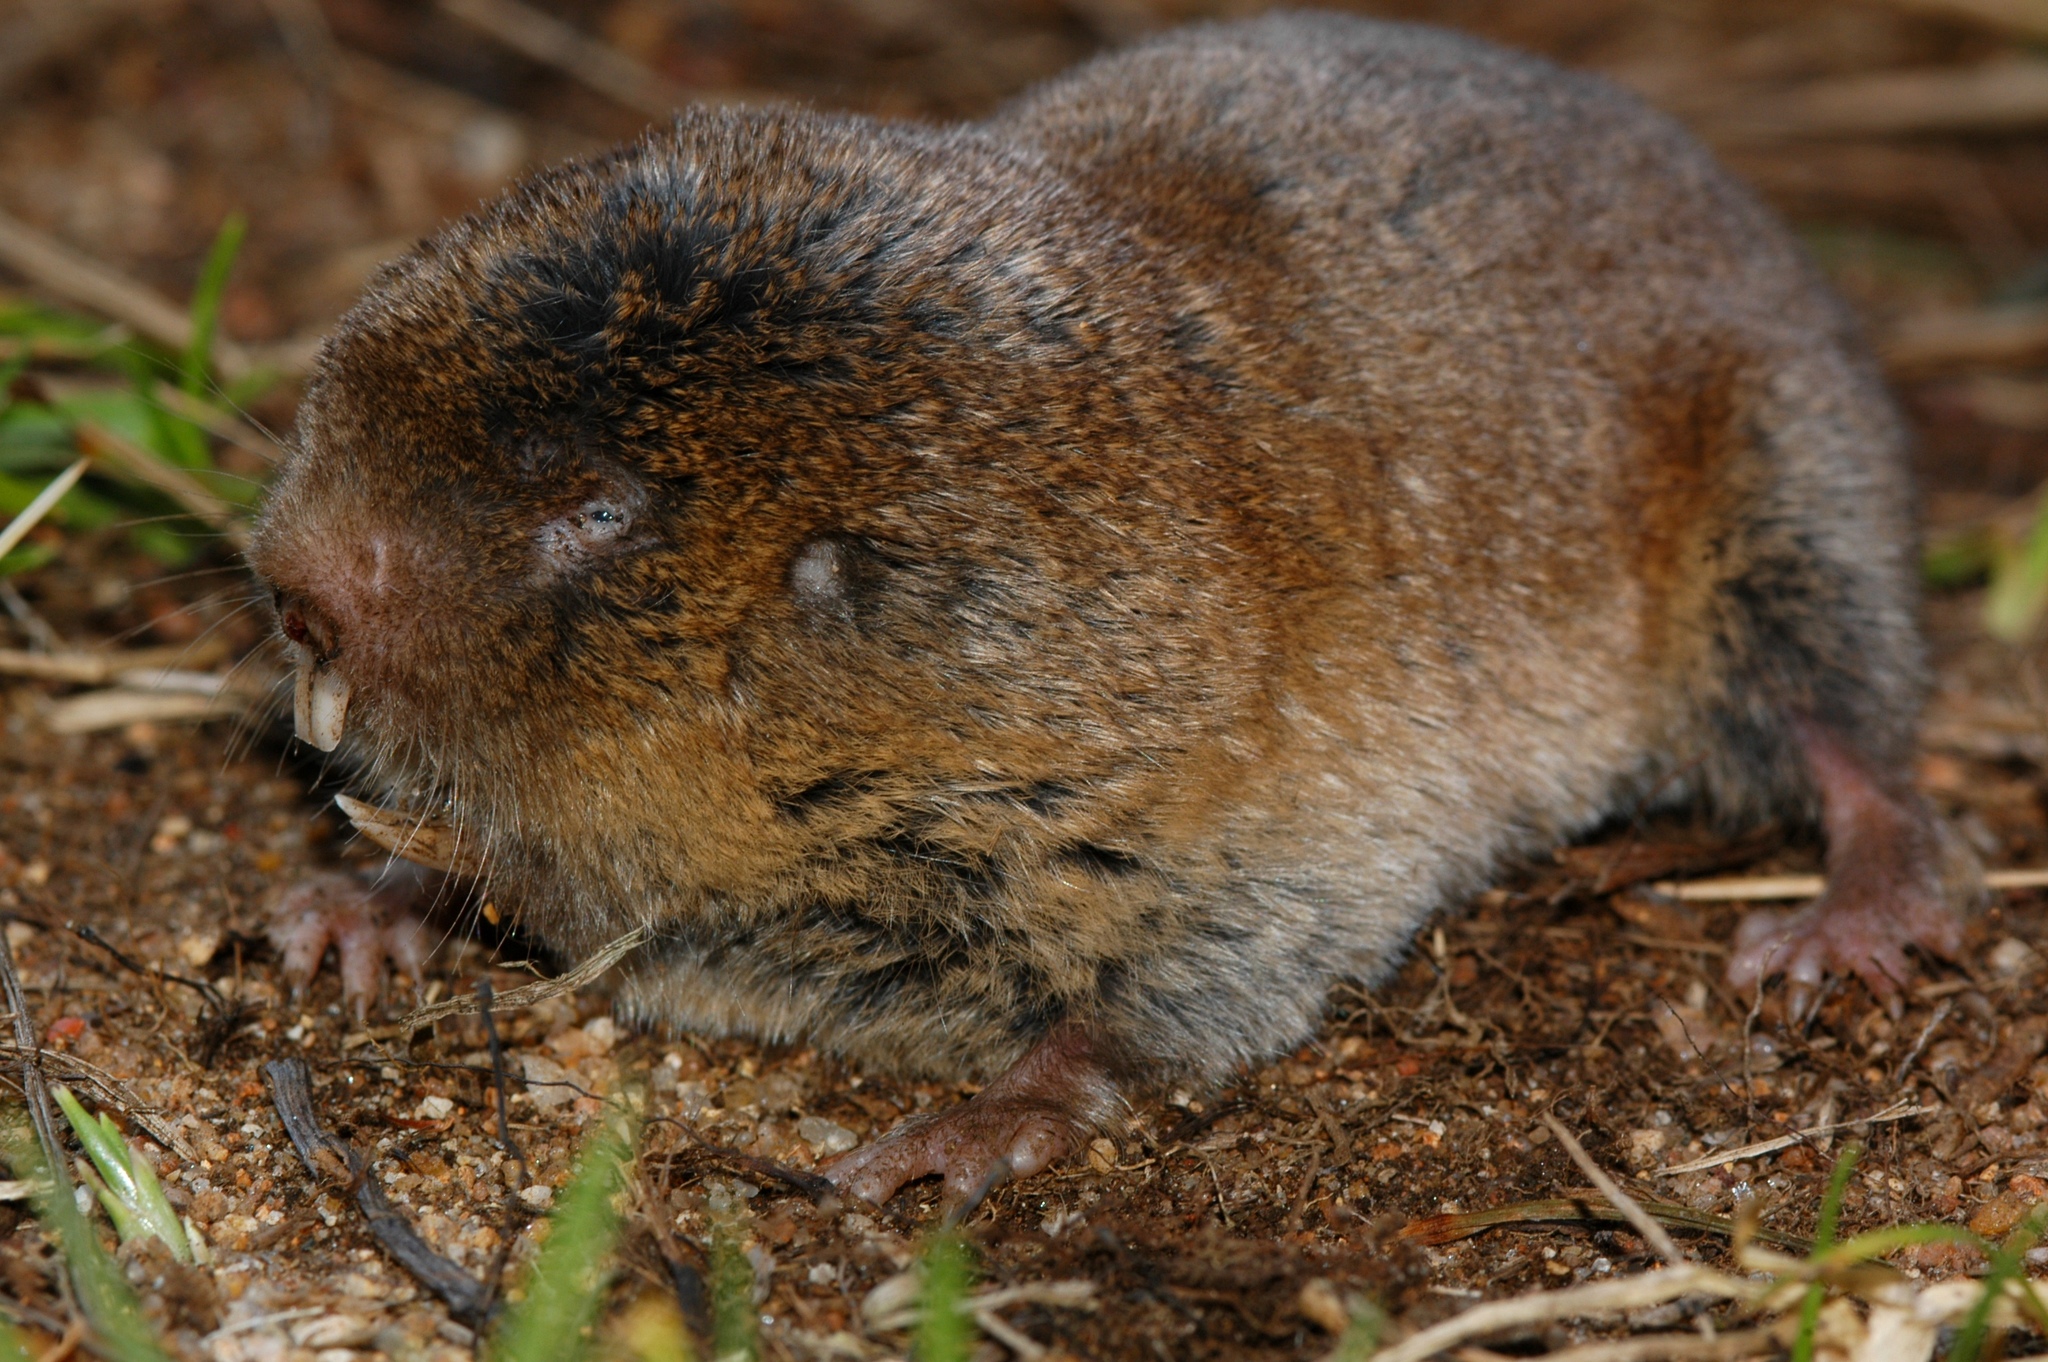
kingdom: Animalia
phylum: Chordata
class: Mammalia
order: Rodentia
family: Bathyergidae
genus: Cryptomys
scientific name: Cryptomys hottentotus
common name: Southern african mole-rat
